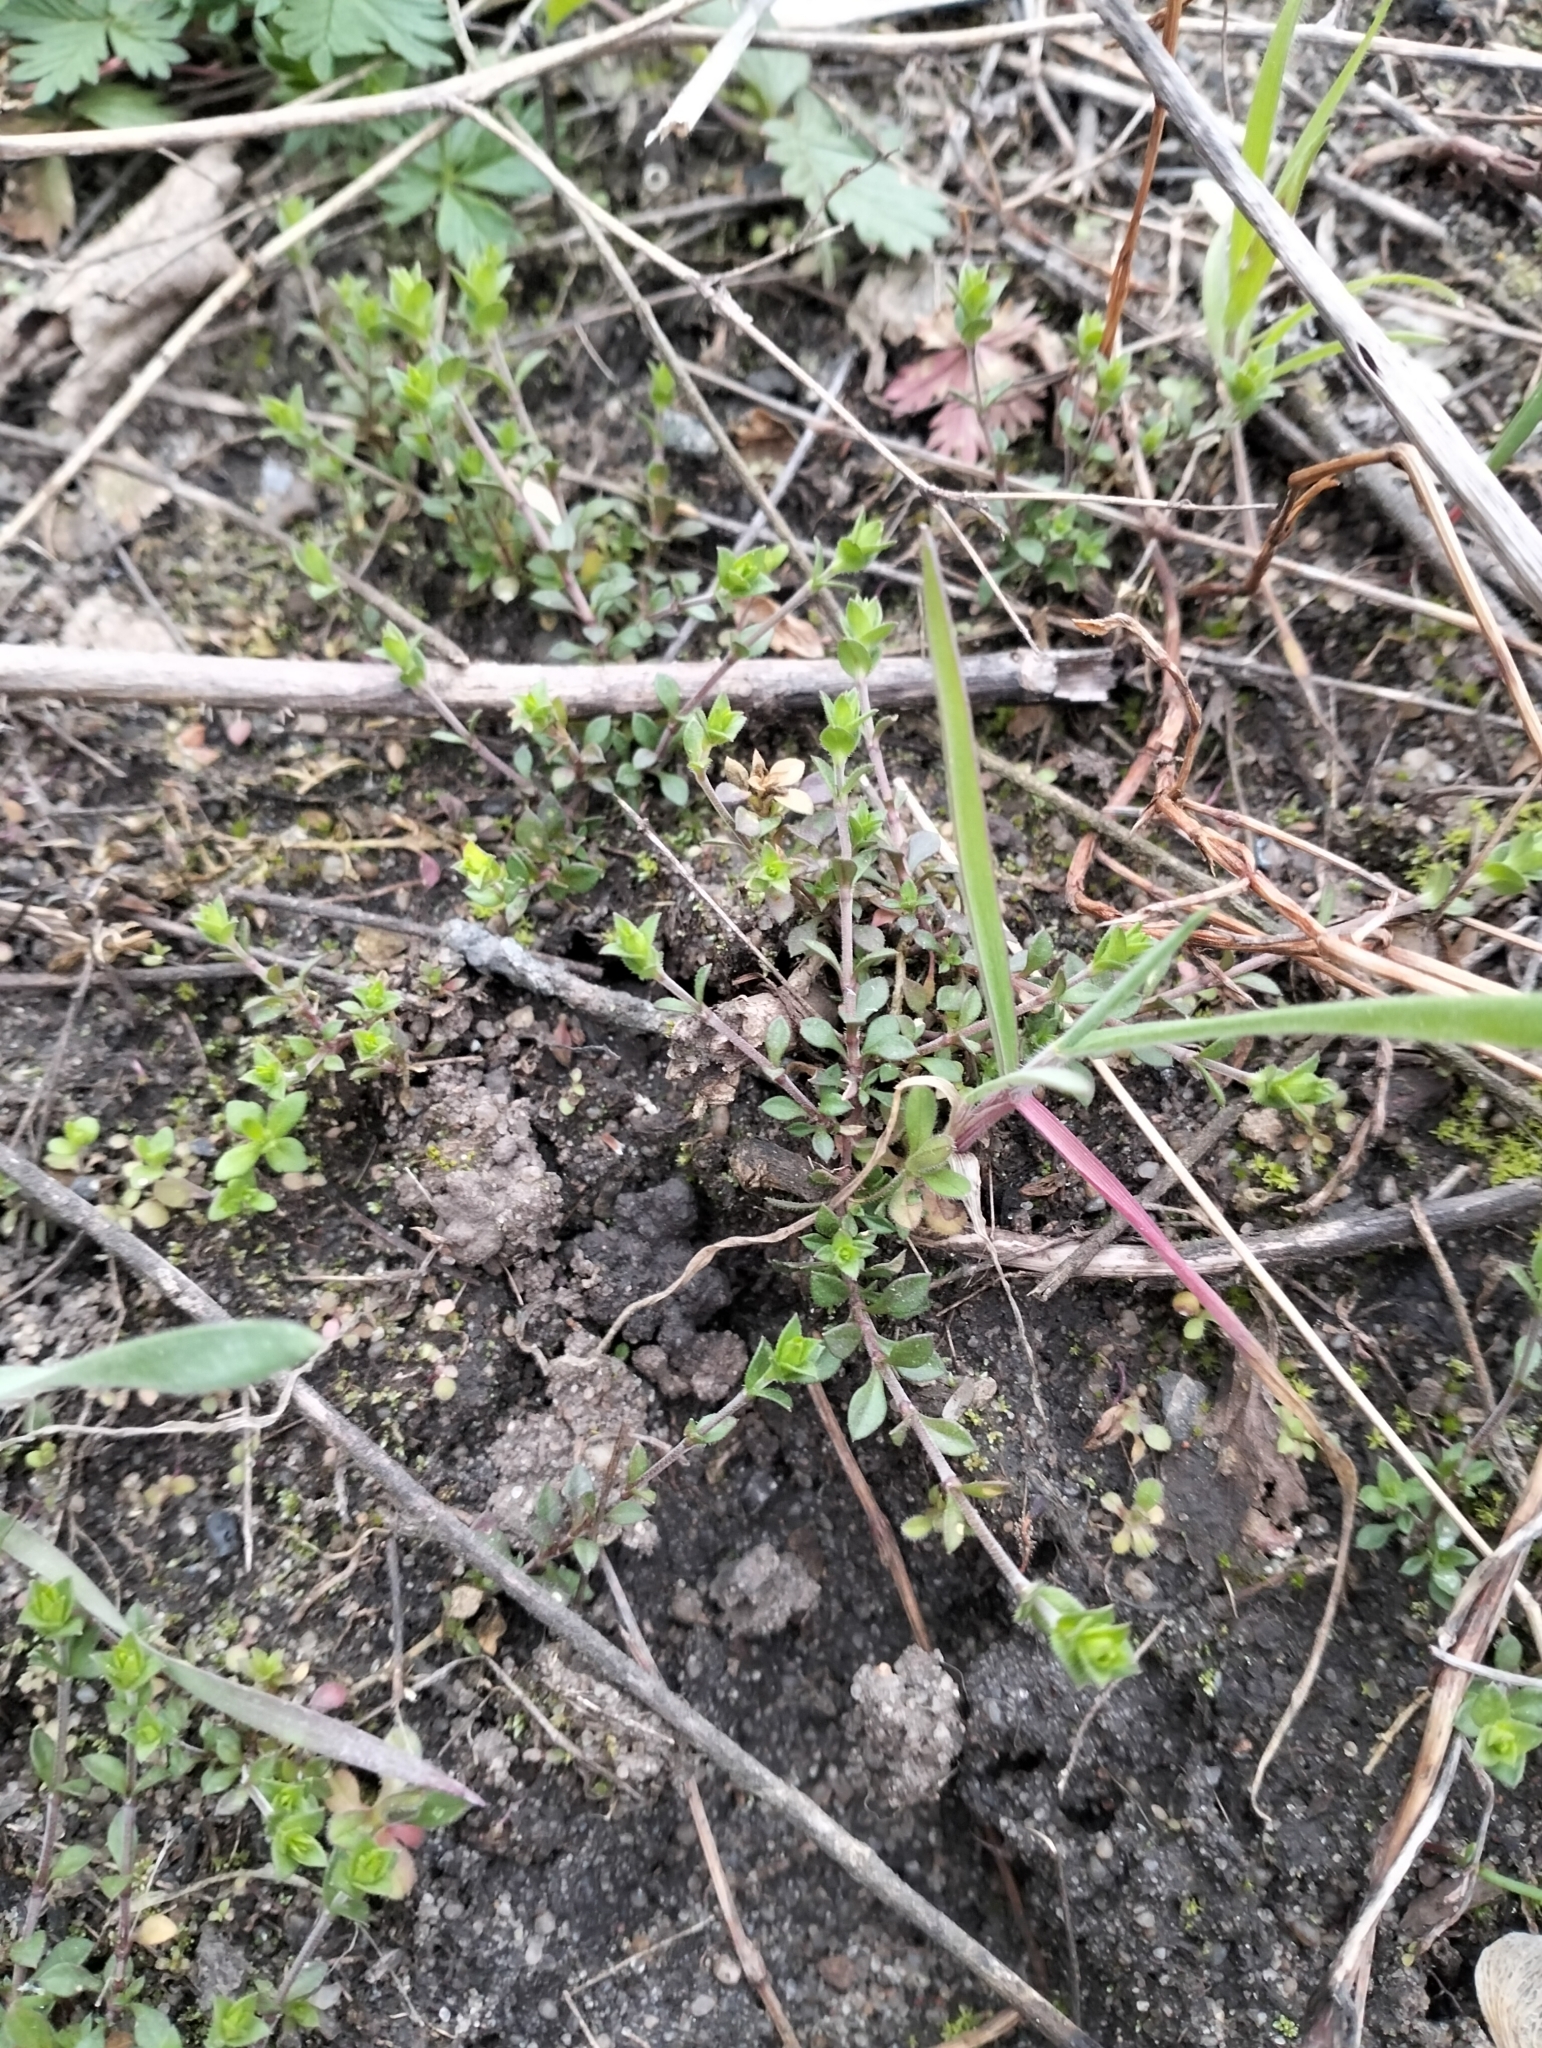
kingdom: Plantae
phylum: Tracheophyta
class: Magnoliopsida
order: Caryophyllales
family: Caryophyllaceae
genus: Arenaria
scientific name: Arenaria serpyllifolia
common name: Thyme-leaved sandwort
